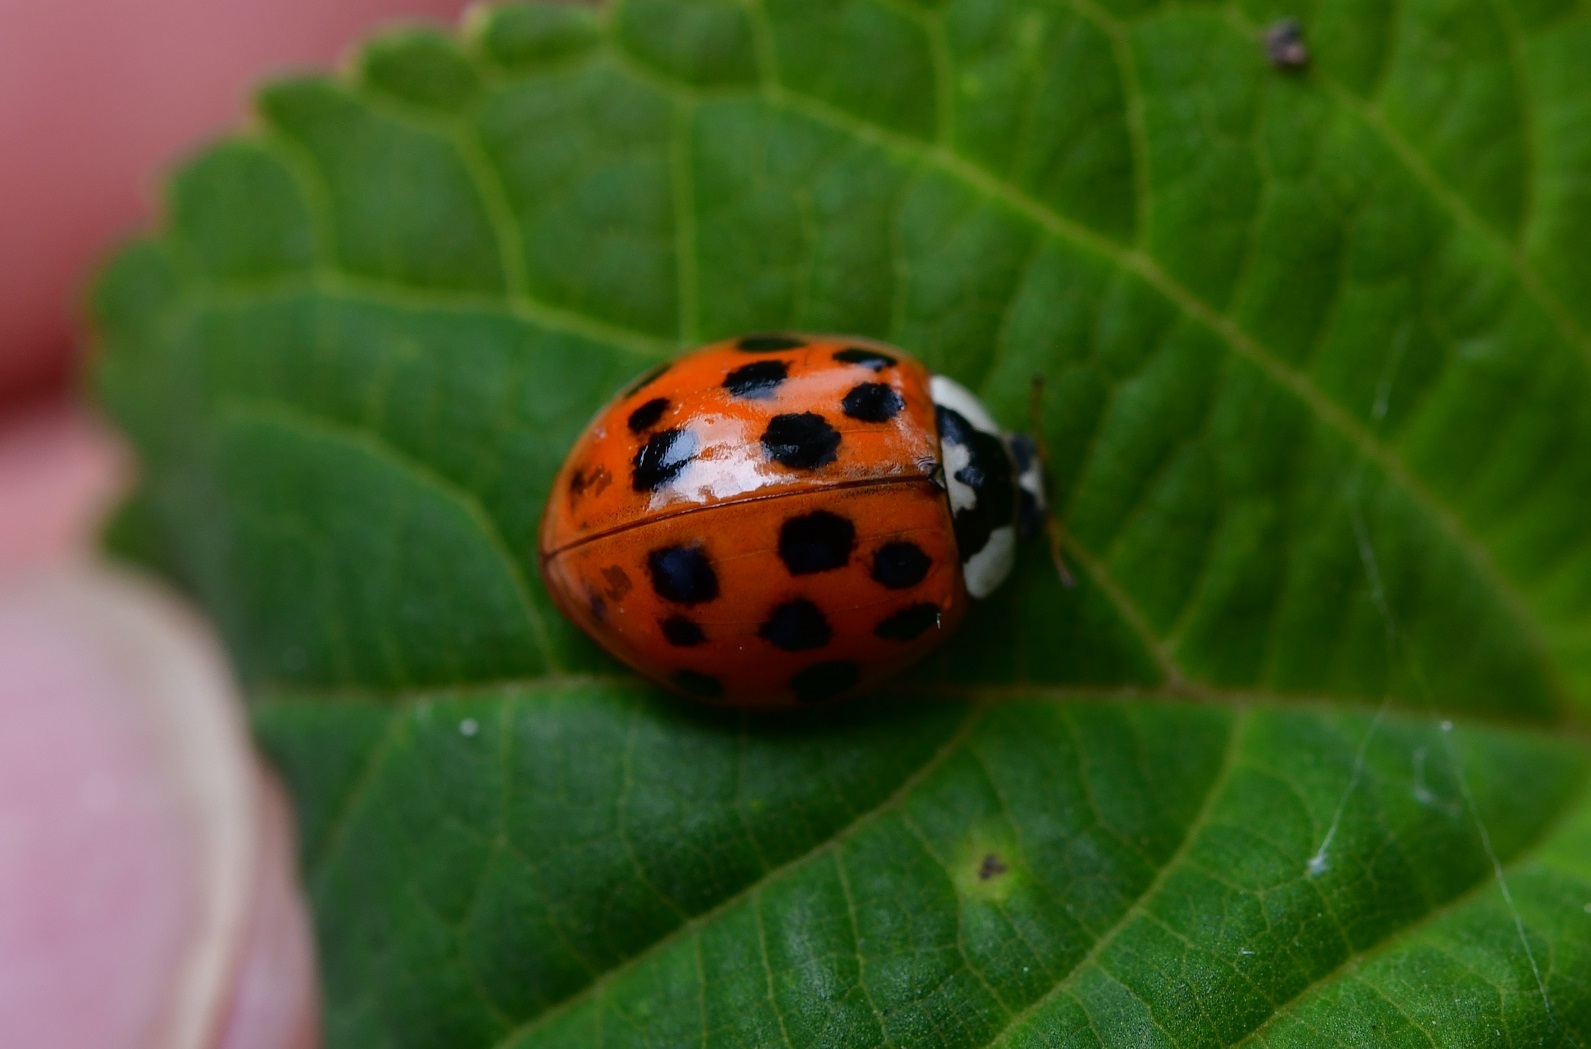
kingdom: Animalia
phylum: Arthropoda
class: Insecta
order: Coleoptera
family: Coccinellidae
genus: Harmonia
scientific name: Harmonia axyridis
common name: Harlequin ladybird
